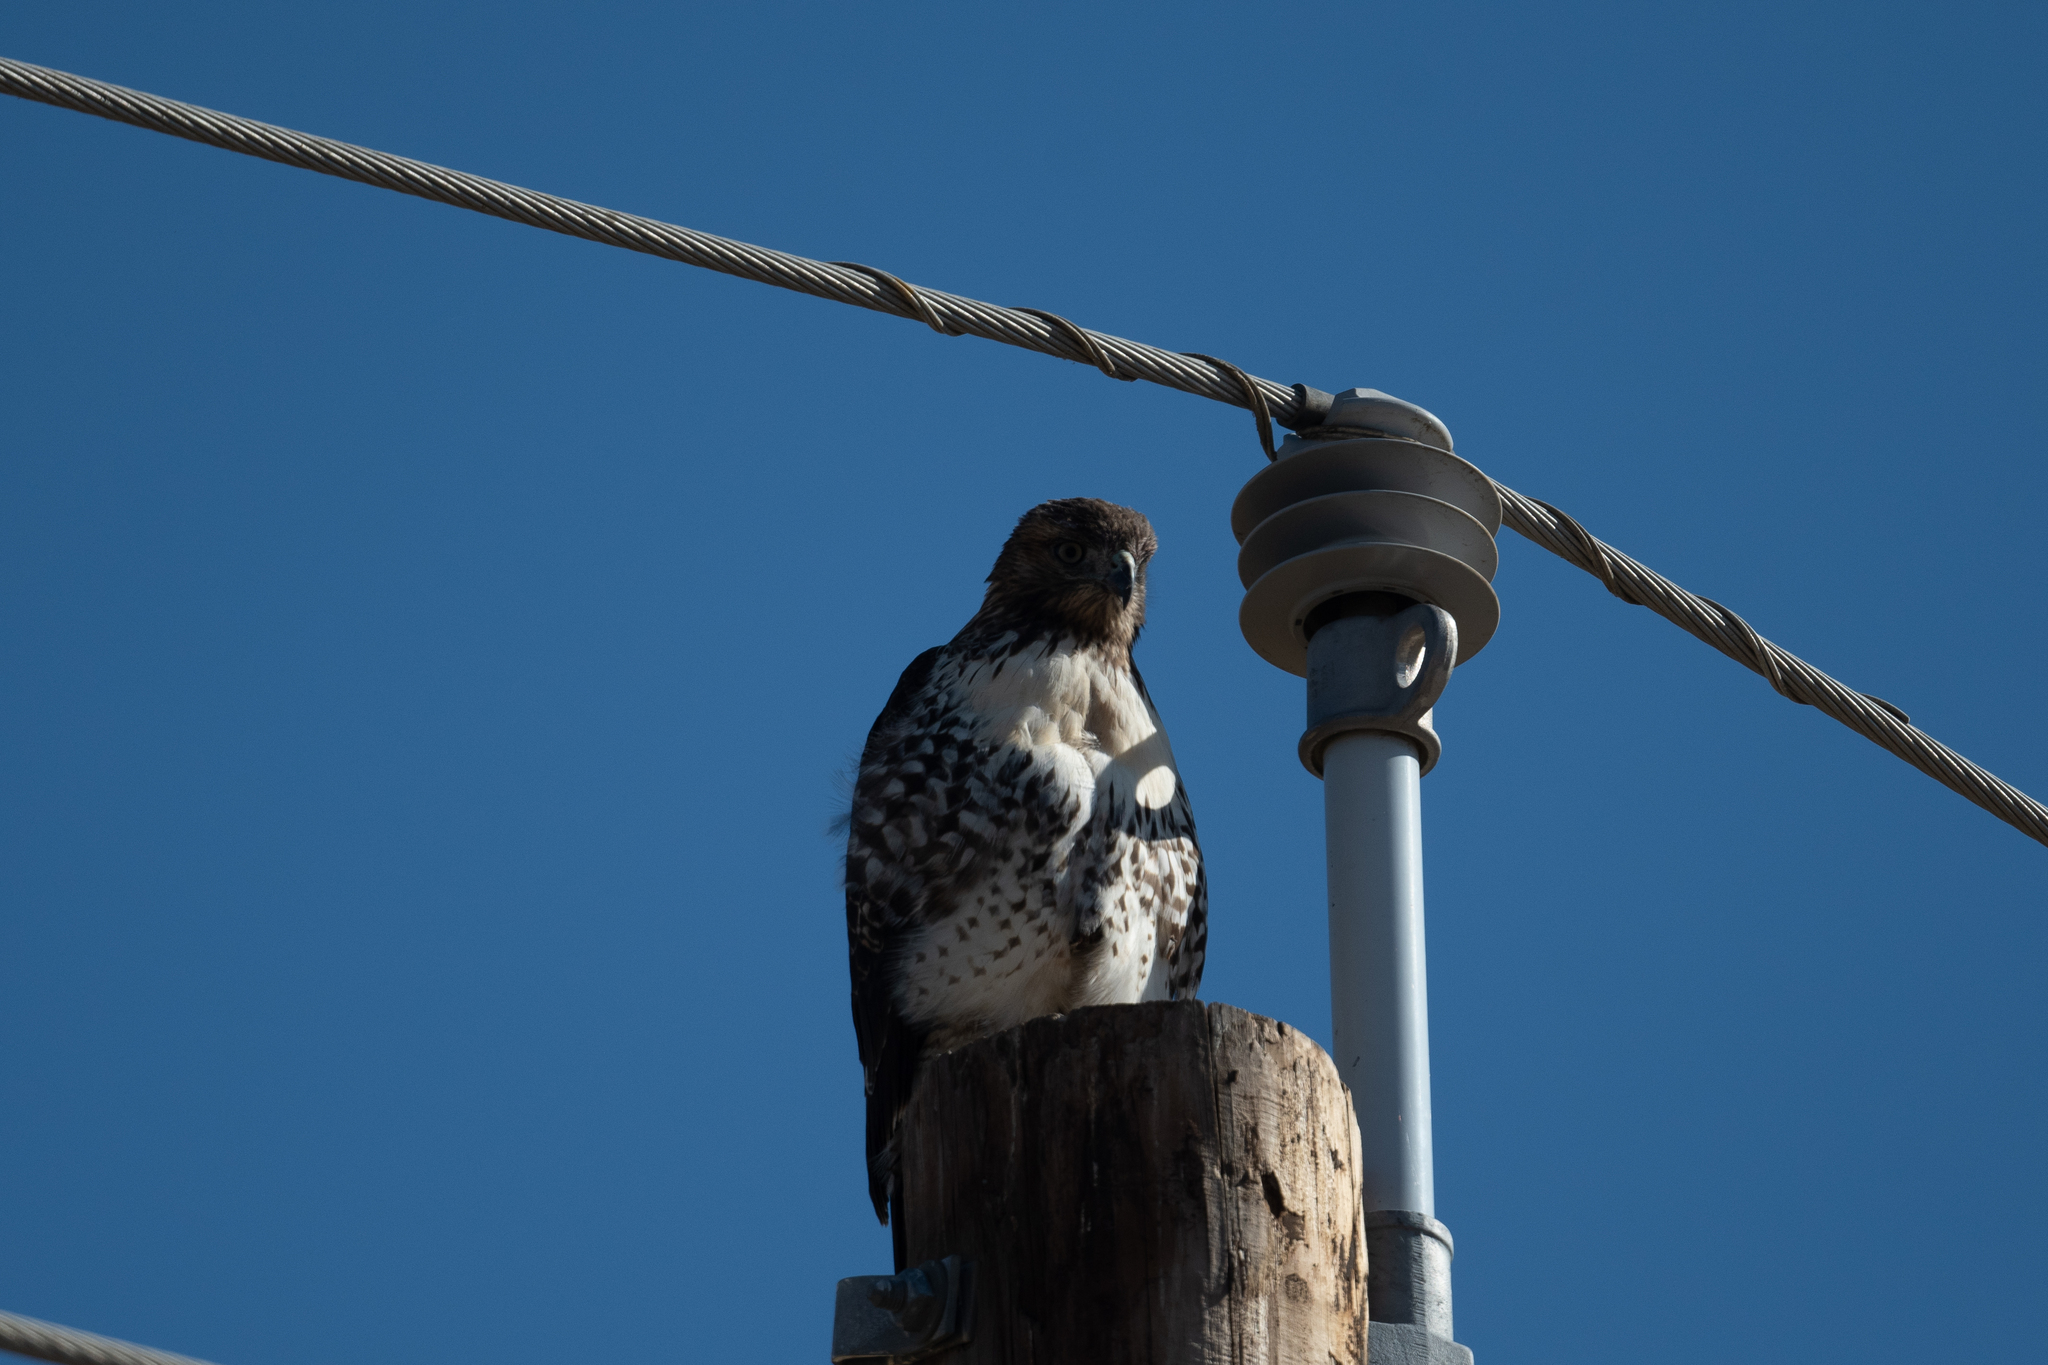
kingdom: Animalia
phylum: Chordata
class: Aves
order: Accipitriformes
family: Accipitridae
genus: Buteo
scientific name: Buteo jamaicensis
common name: Red-tailed hawk
